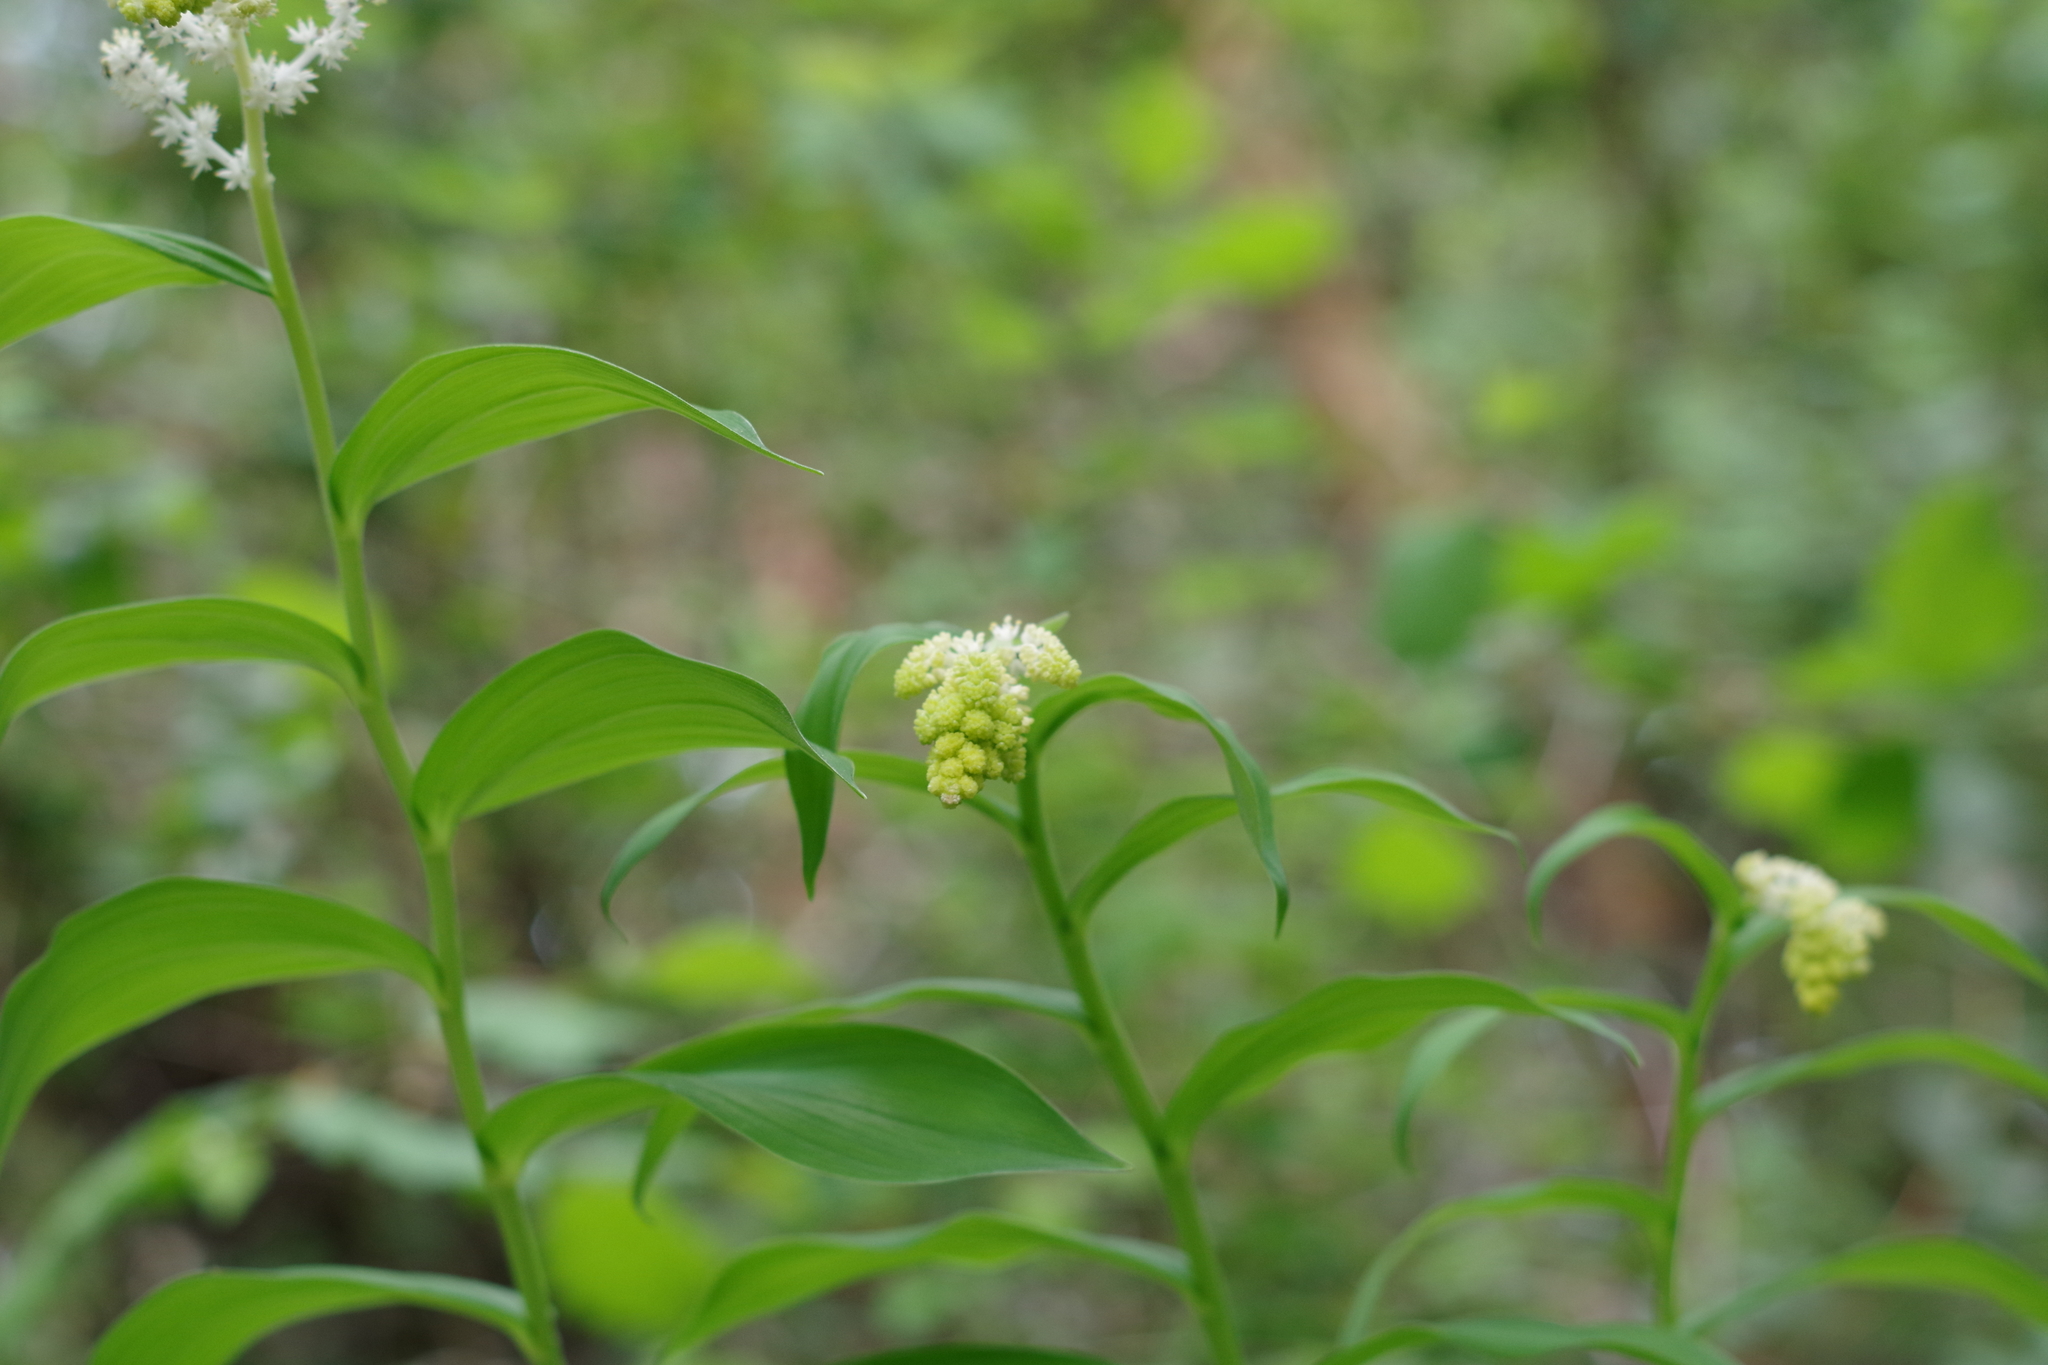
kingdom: Plantae
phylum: Tracheophyta
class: Liliopsida
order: Asparagales
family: Asparagaceae
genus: Maianthemum
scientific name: Maianthemum racemosum
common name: False spikenard
